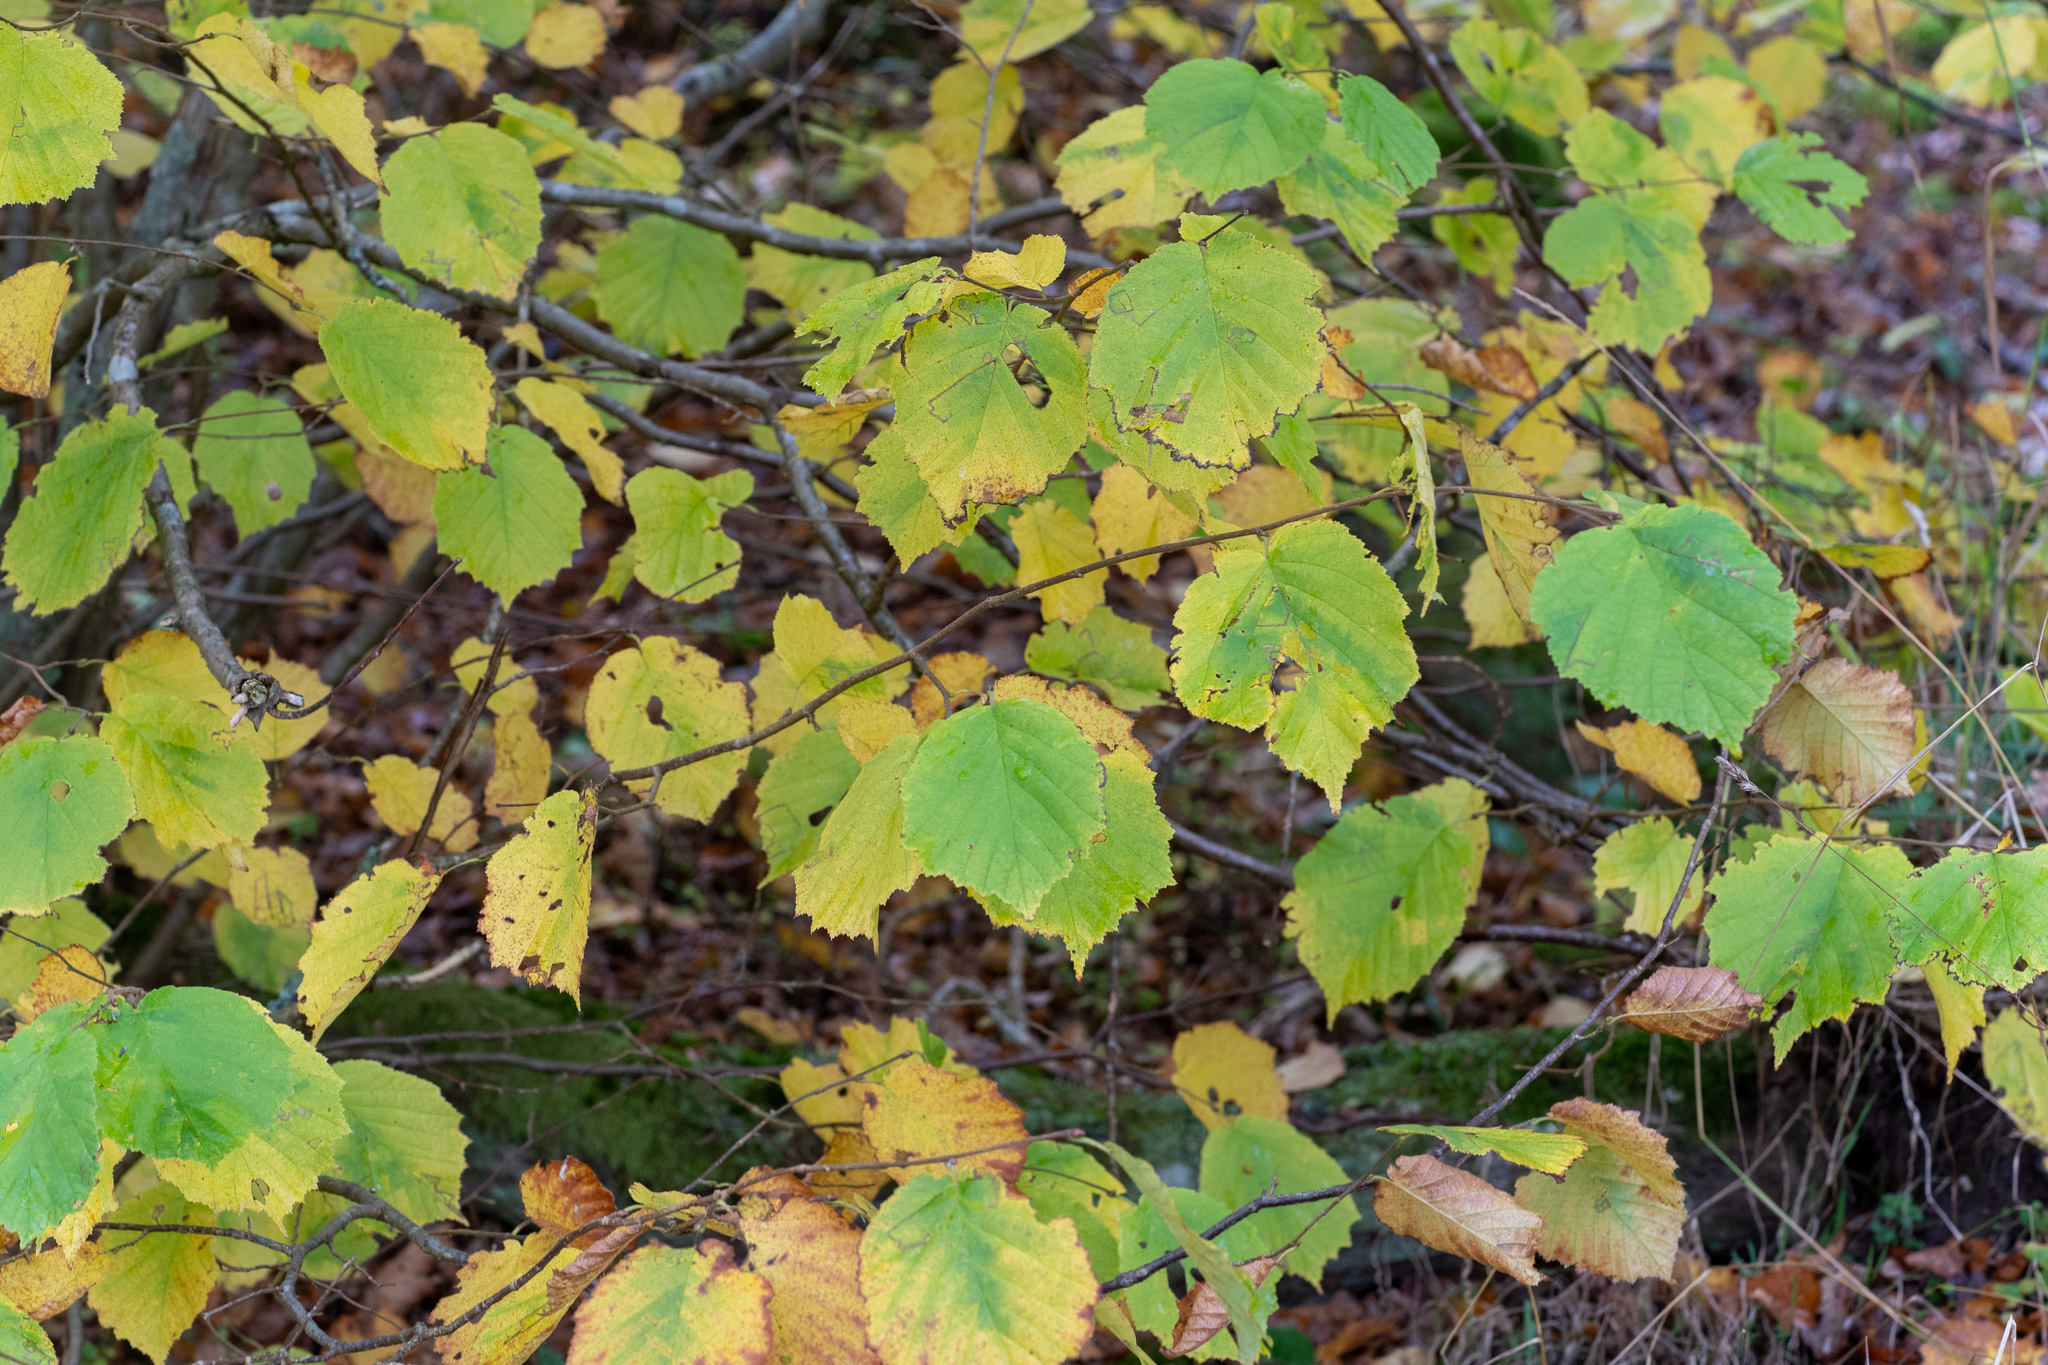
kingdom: Plantae
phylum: Tracheophyta
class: Magnoliopsida
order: Fagales
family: Betulaceae
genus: Corylus
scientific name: Corylus avellana
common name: European hazel
